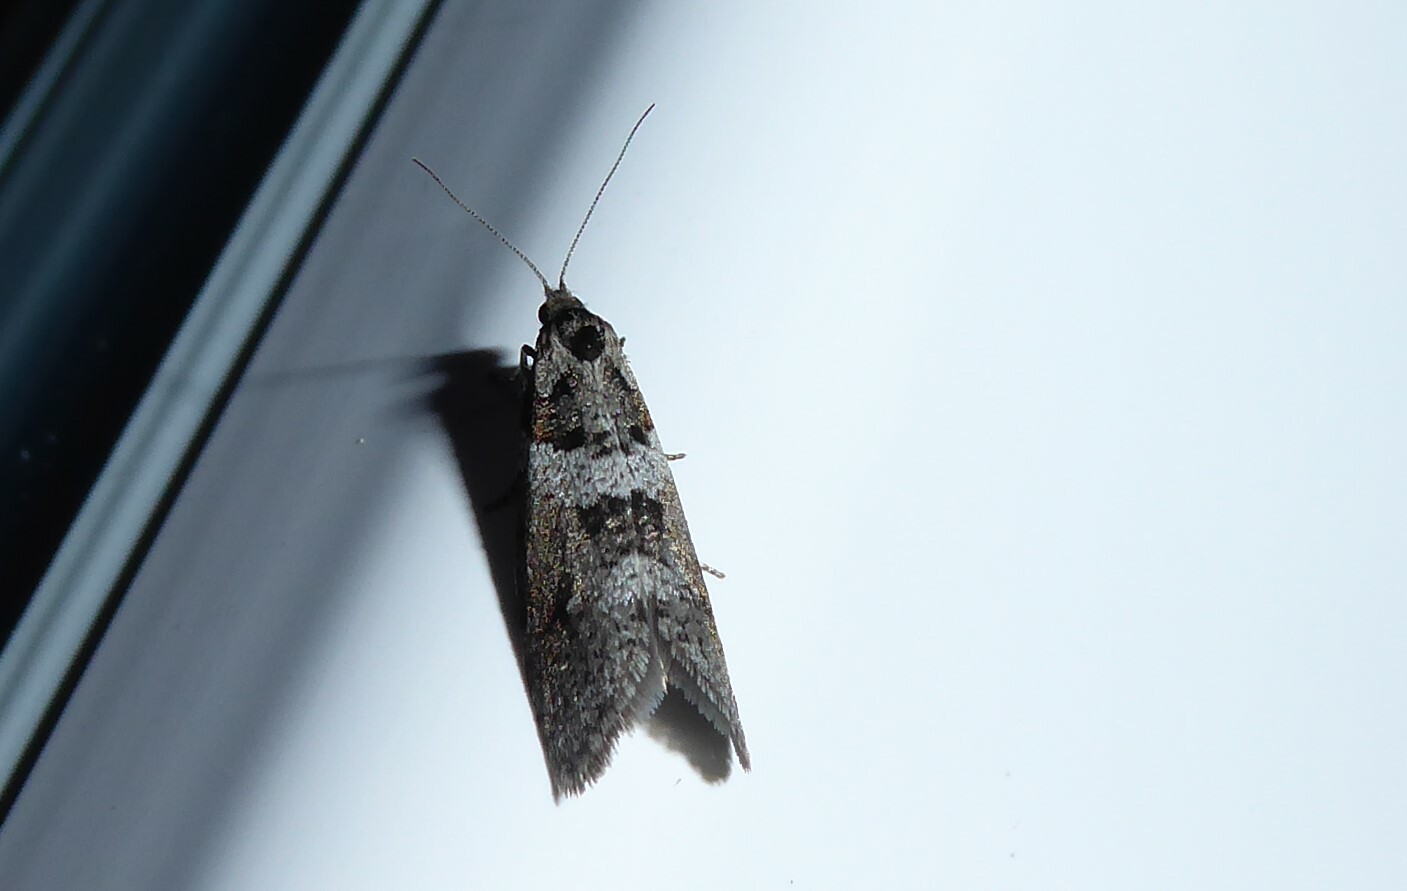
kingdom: Animalia
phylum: Arthropoda
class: Insecta
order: Lepidoptera
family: Psychidae
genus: Lepidoscia
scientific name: Lepidoscia heliochares
